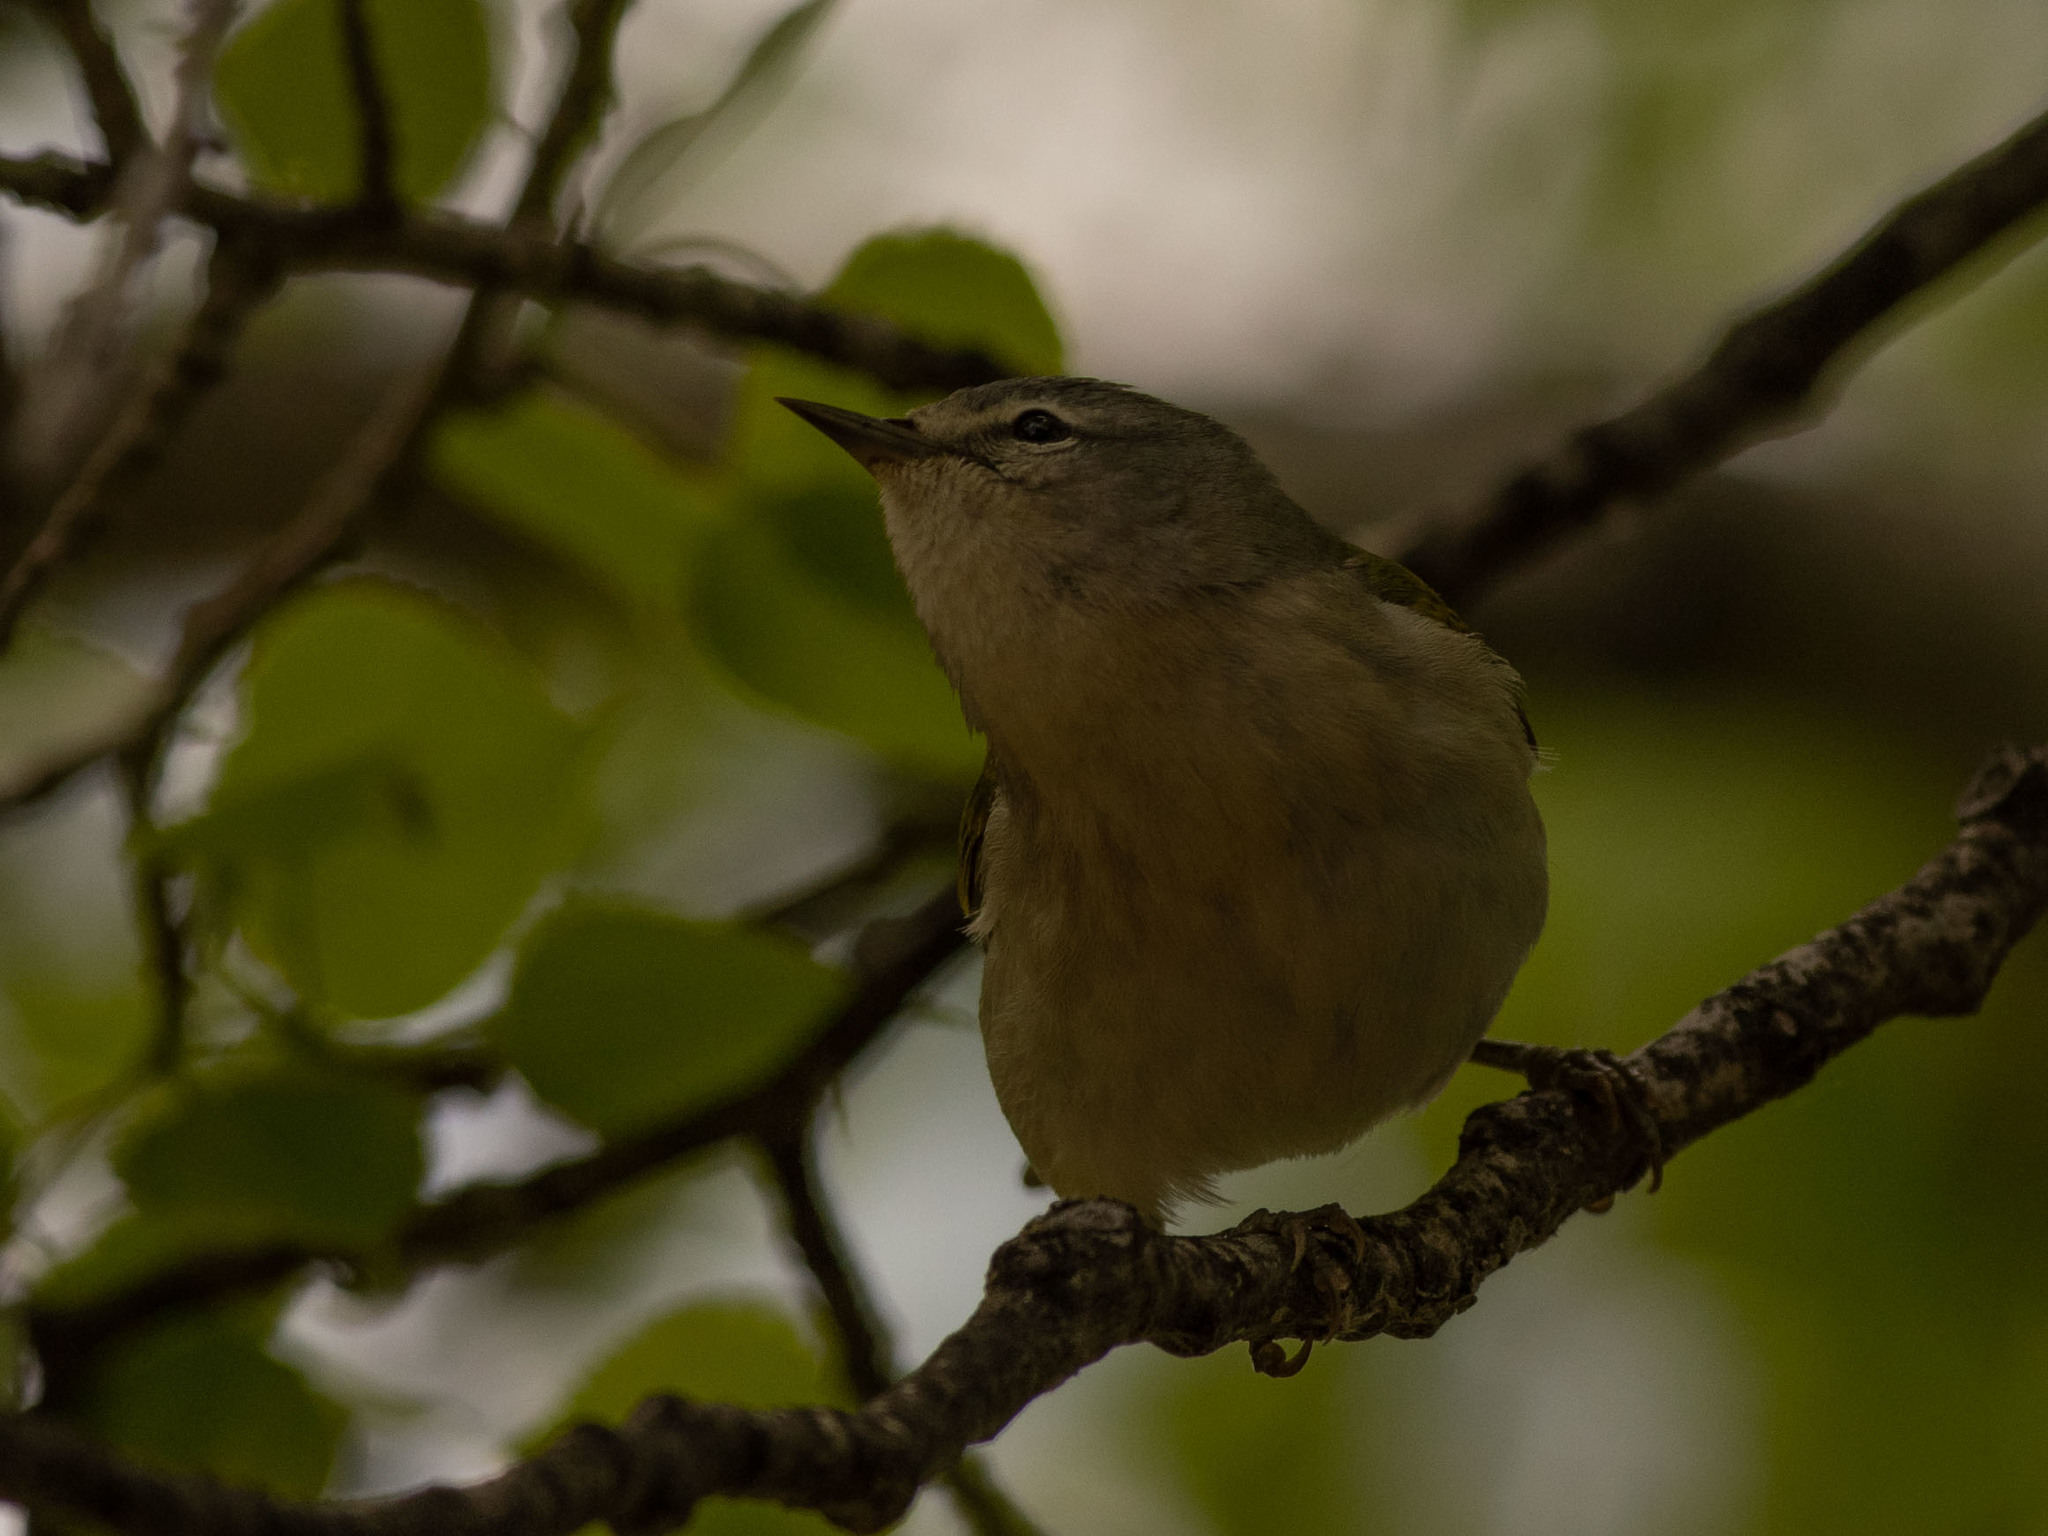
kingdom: Animalia
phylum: Chordata
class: Aves
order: Passeriformes
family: Parulidae
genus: Leiothlypis
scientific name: Leiothlypis peregrina
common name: Tennessee warbler
